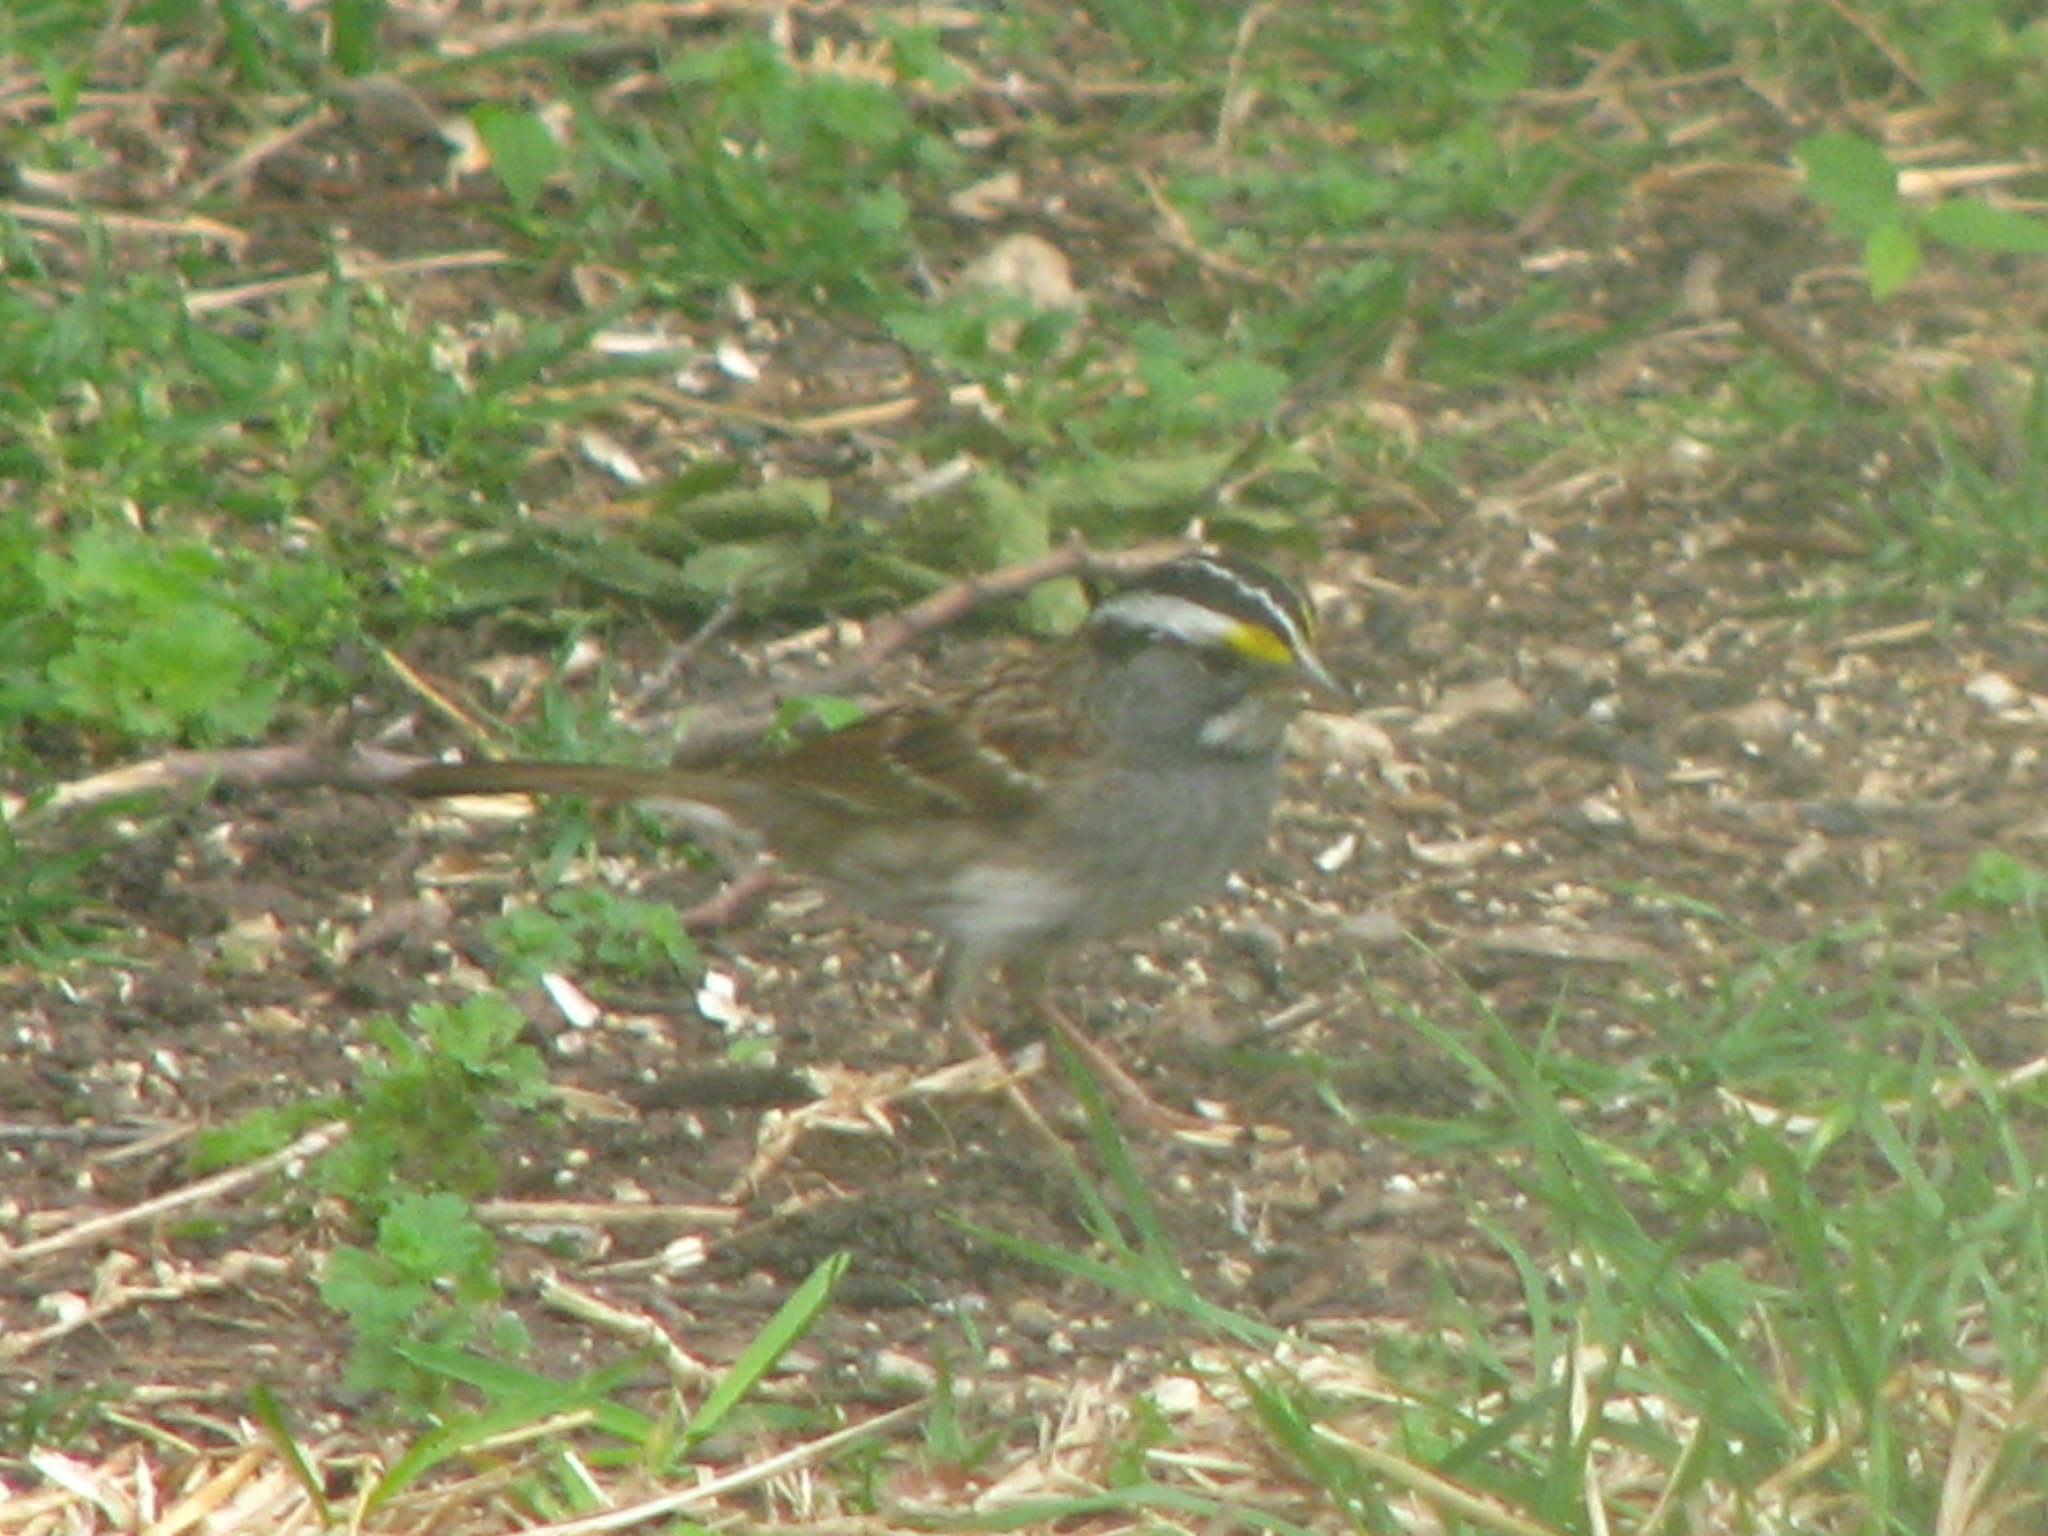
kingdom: Animalia
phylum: Chordata
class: Aves
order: Passeriformes
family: Passerellidae
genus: Zonotrichia
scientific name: Zonotrichia albicollis
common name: White-throated sparrow
